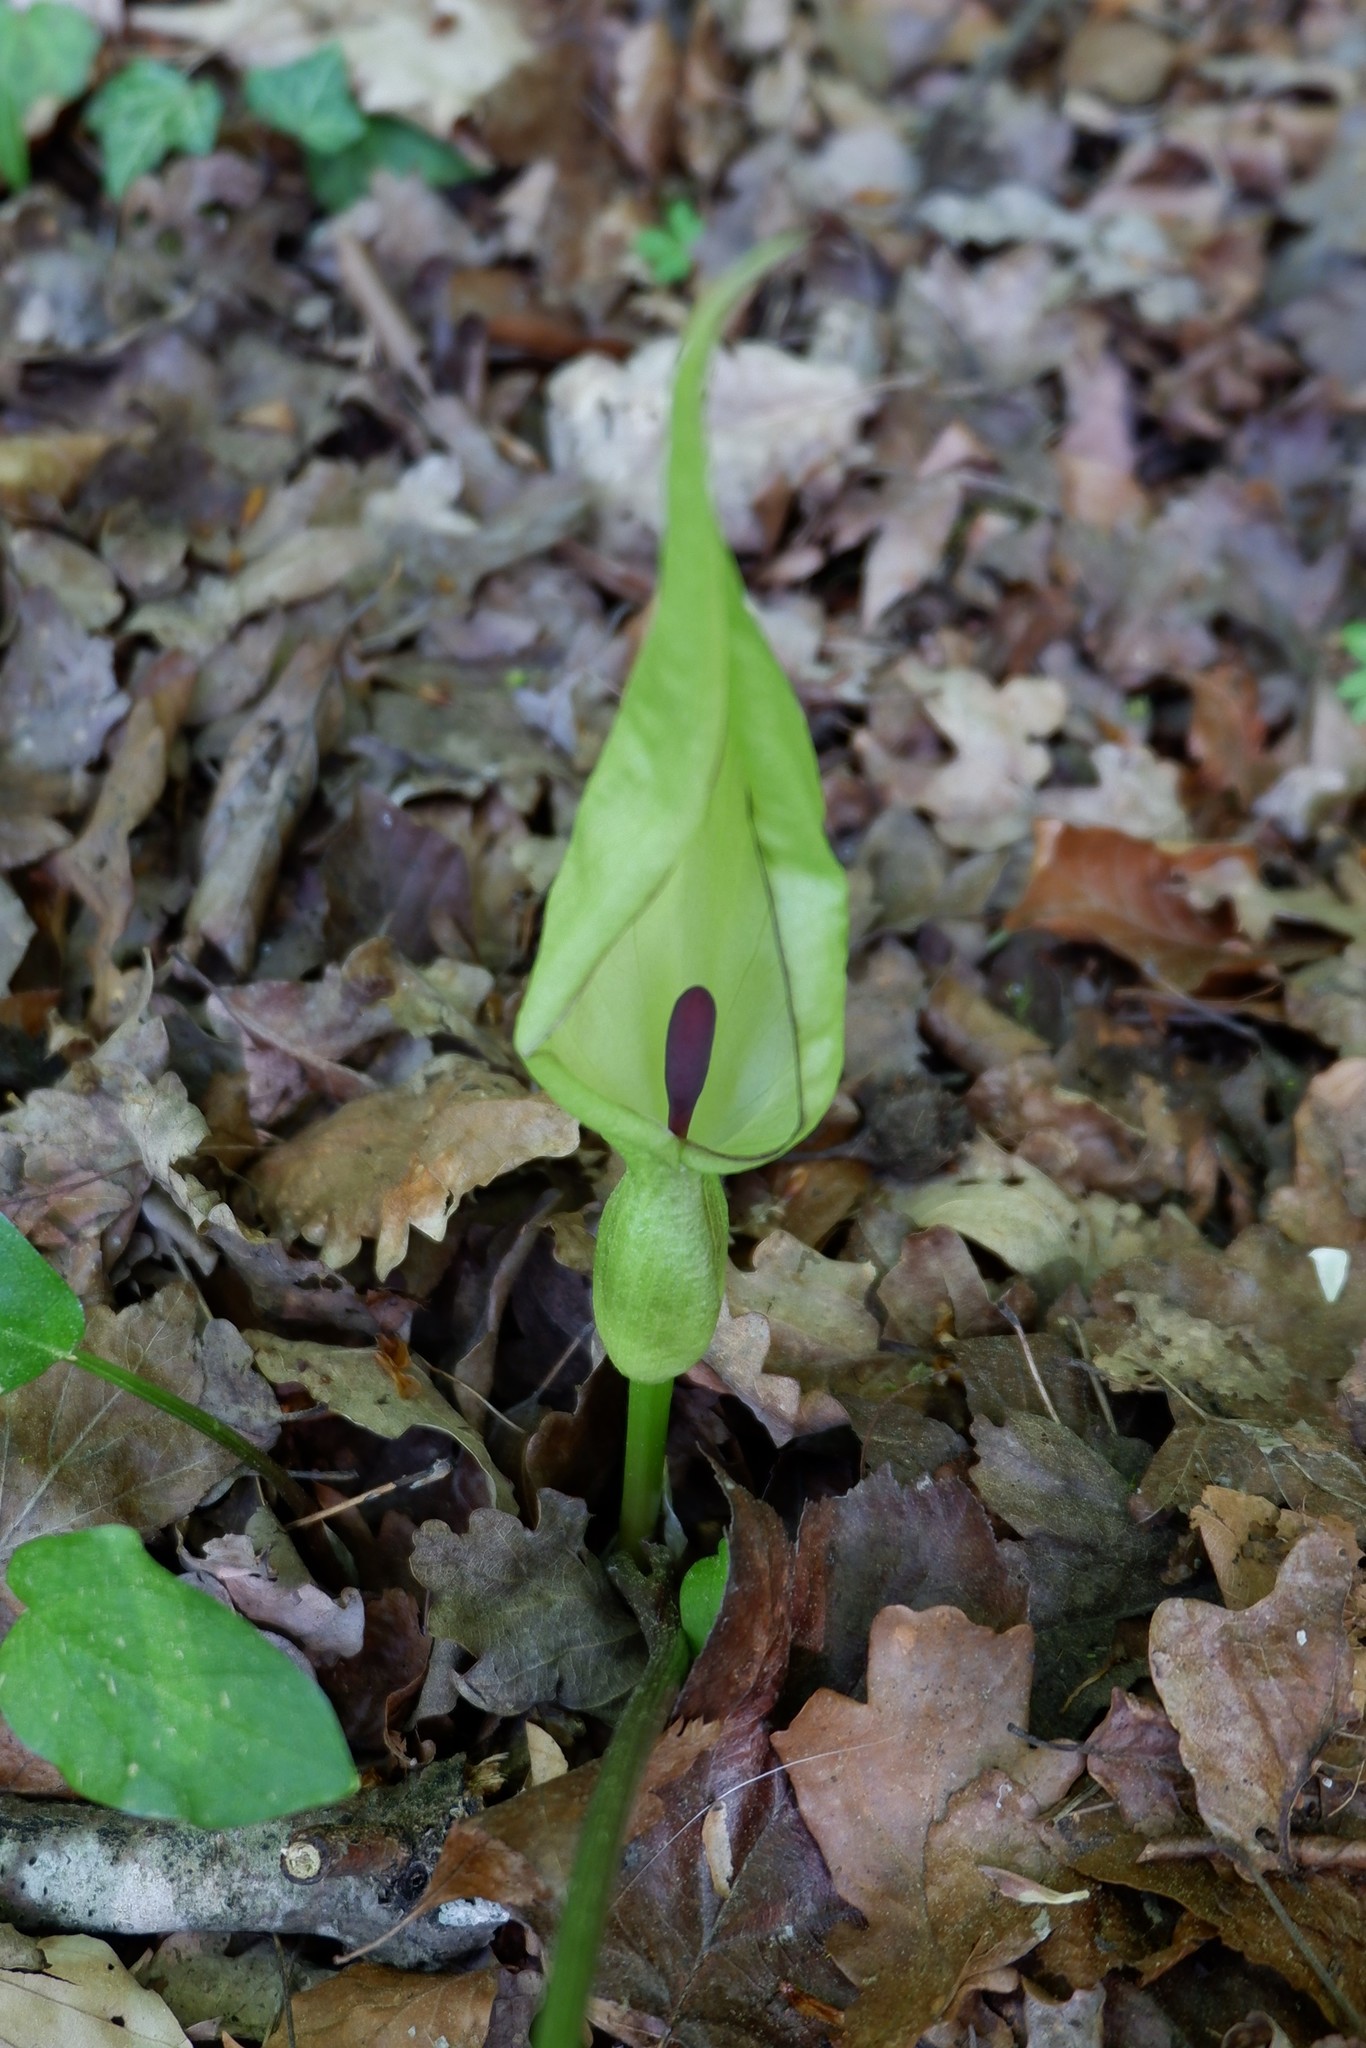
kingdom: Plantae
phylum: Tracheophyta
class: Liliopsida
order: Alismatales
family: Araceae
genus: Arum
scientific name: Arum maculatum
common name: Lords-and-ladies
